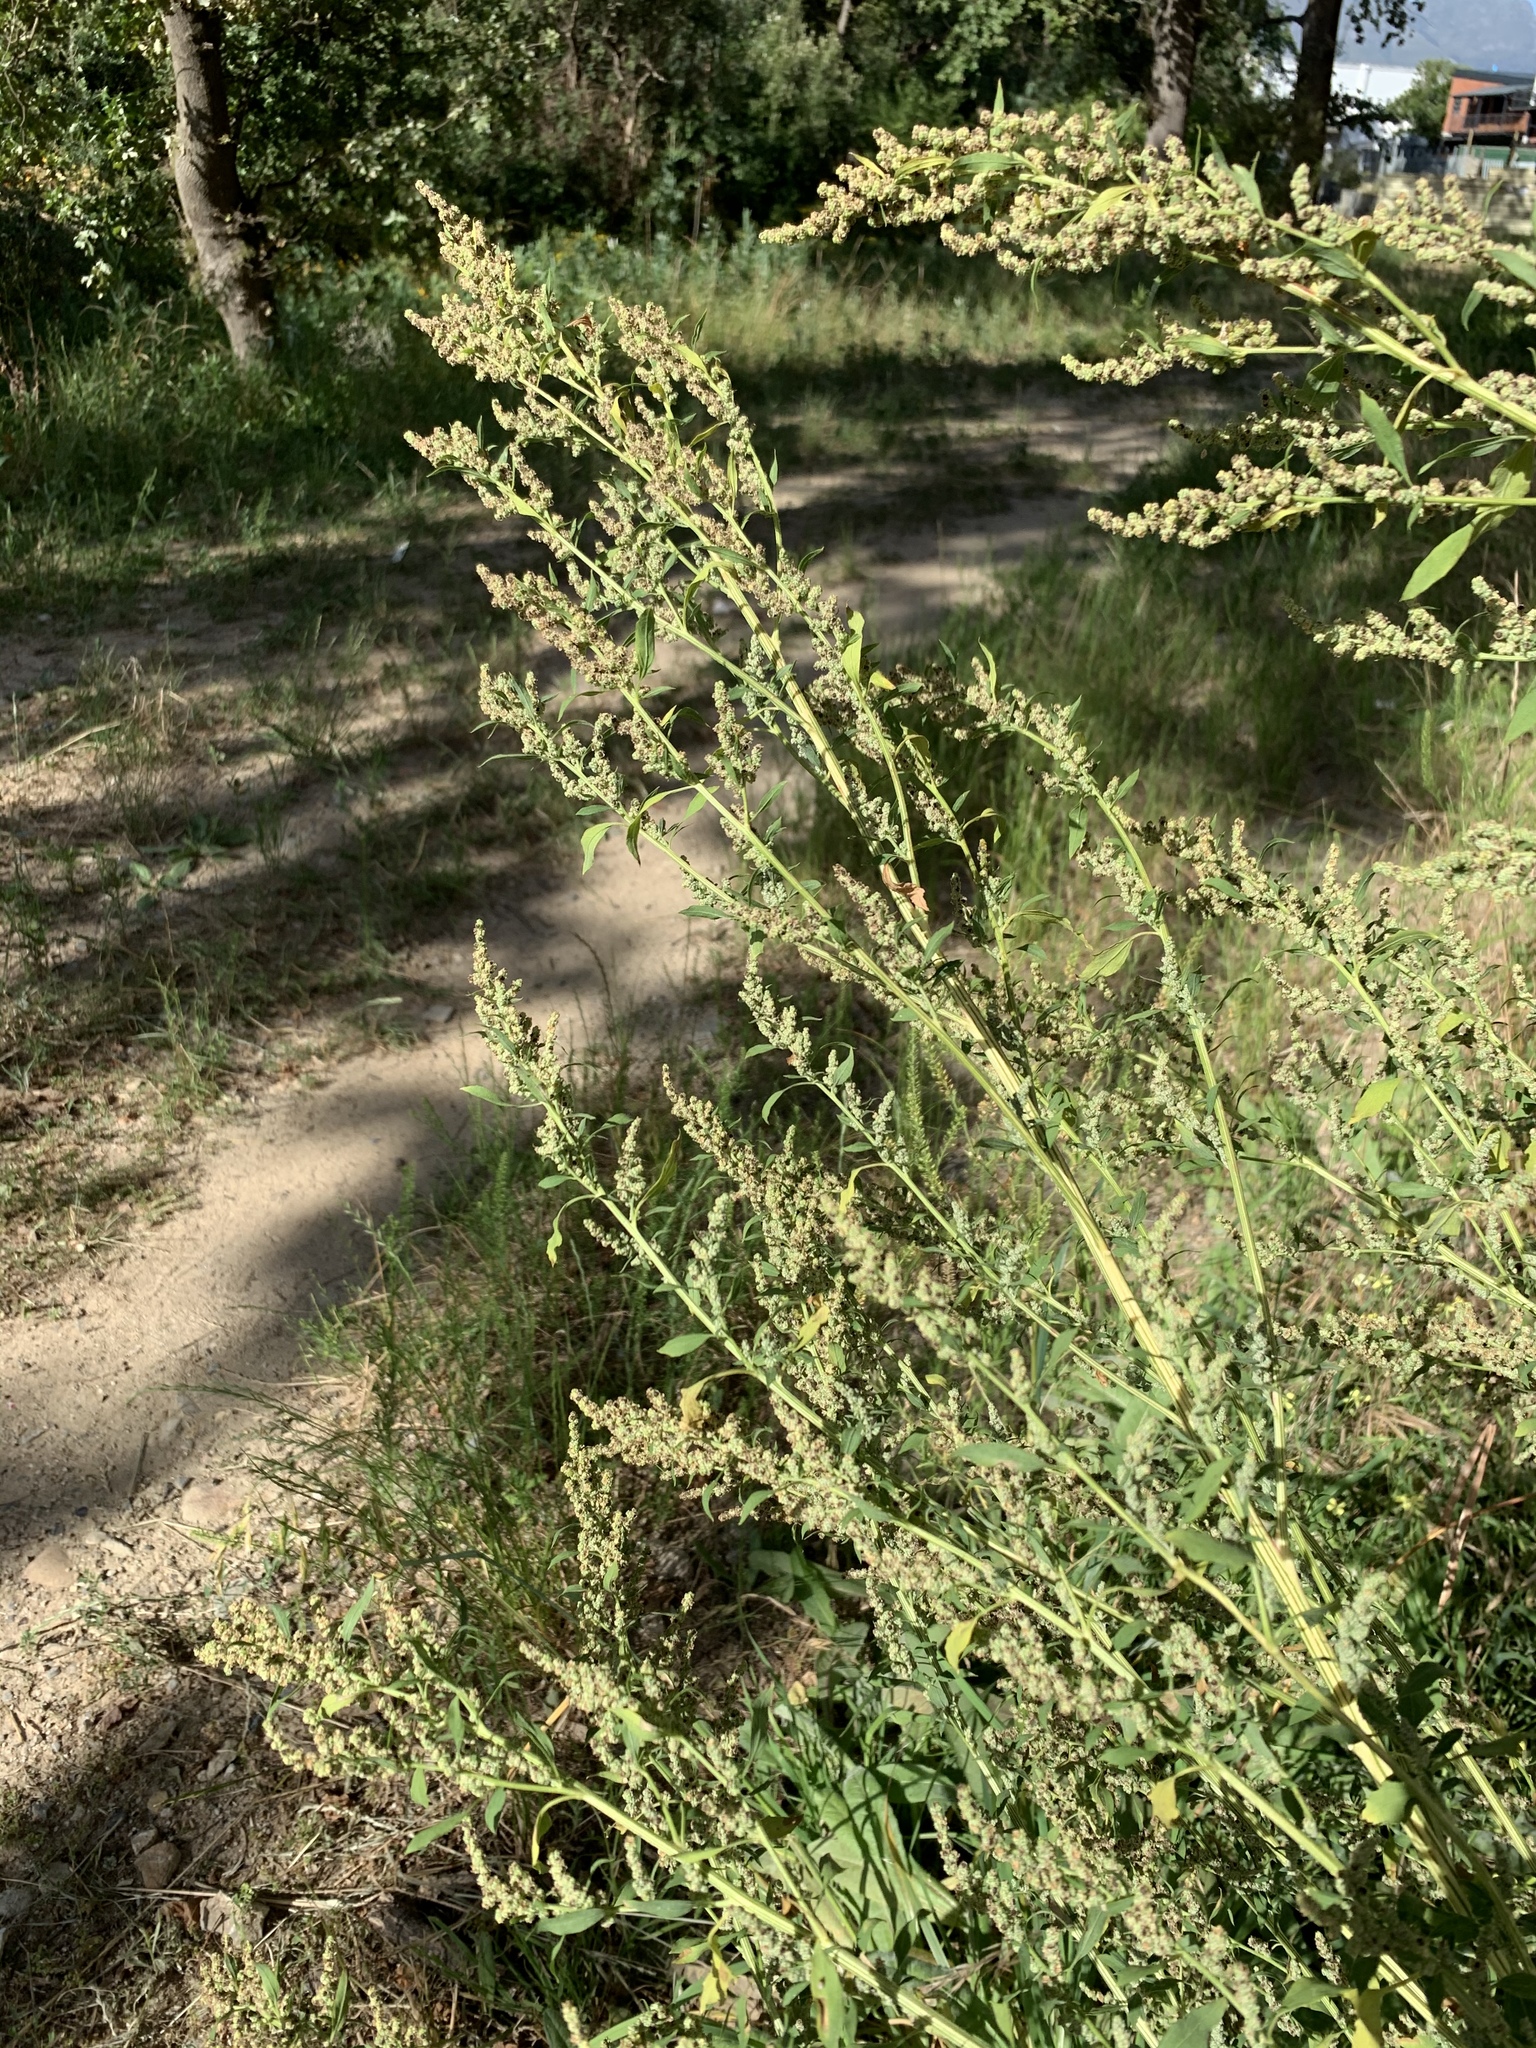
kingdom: Plantae
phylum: Tracheophyta
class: Magnoliopsida
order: Caryophyllales
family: Amaranthaceae
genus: Chenopodium
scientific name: Chenopodium album
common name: Fat-hen
